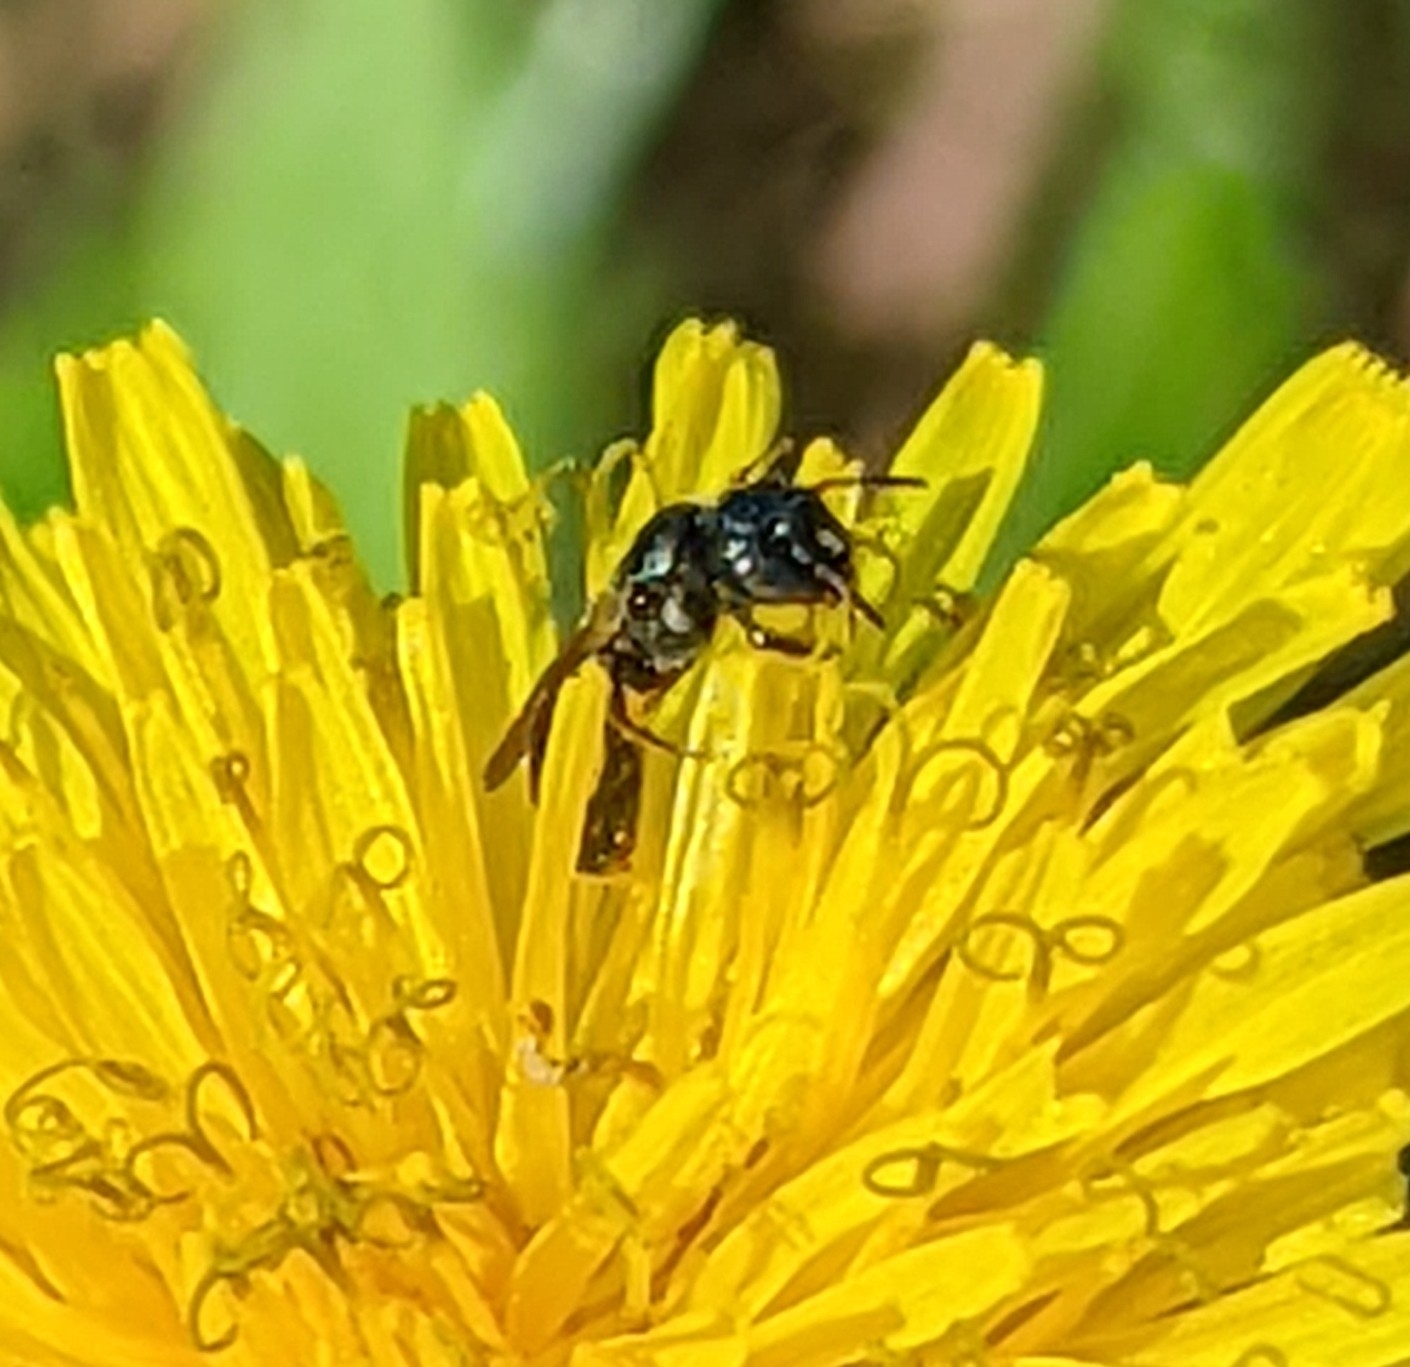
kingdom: Animalia
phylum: Arthropoda
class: Insecta
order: Hymenoptera
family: Apidae
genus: Zadontomerus
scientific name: Zadontomerus
